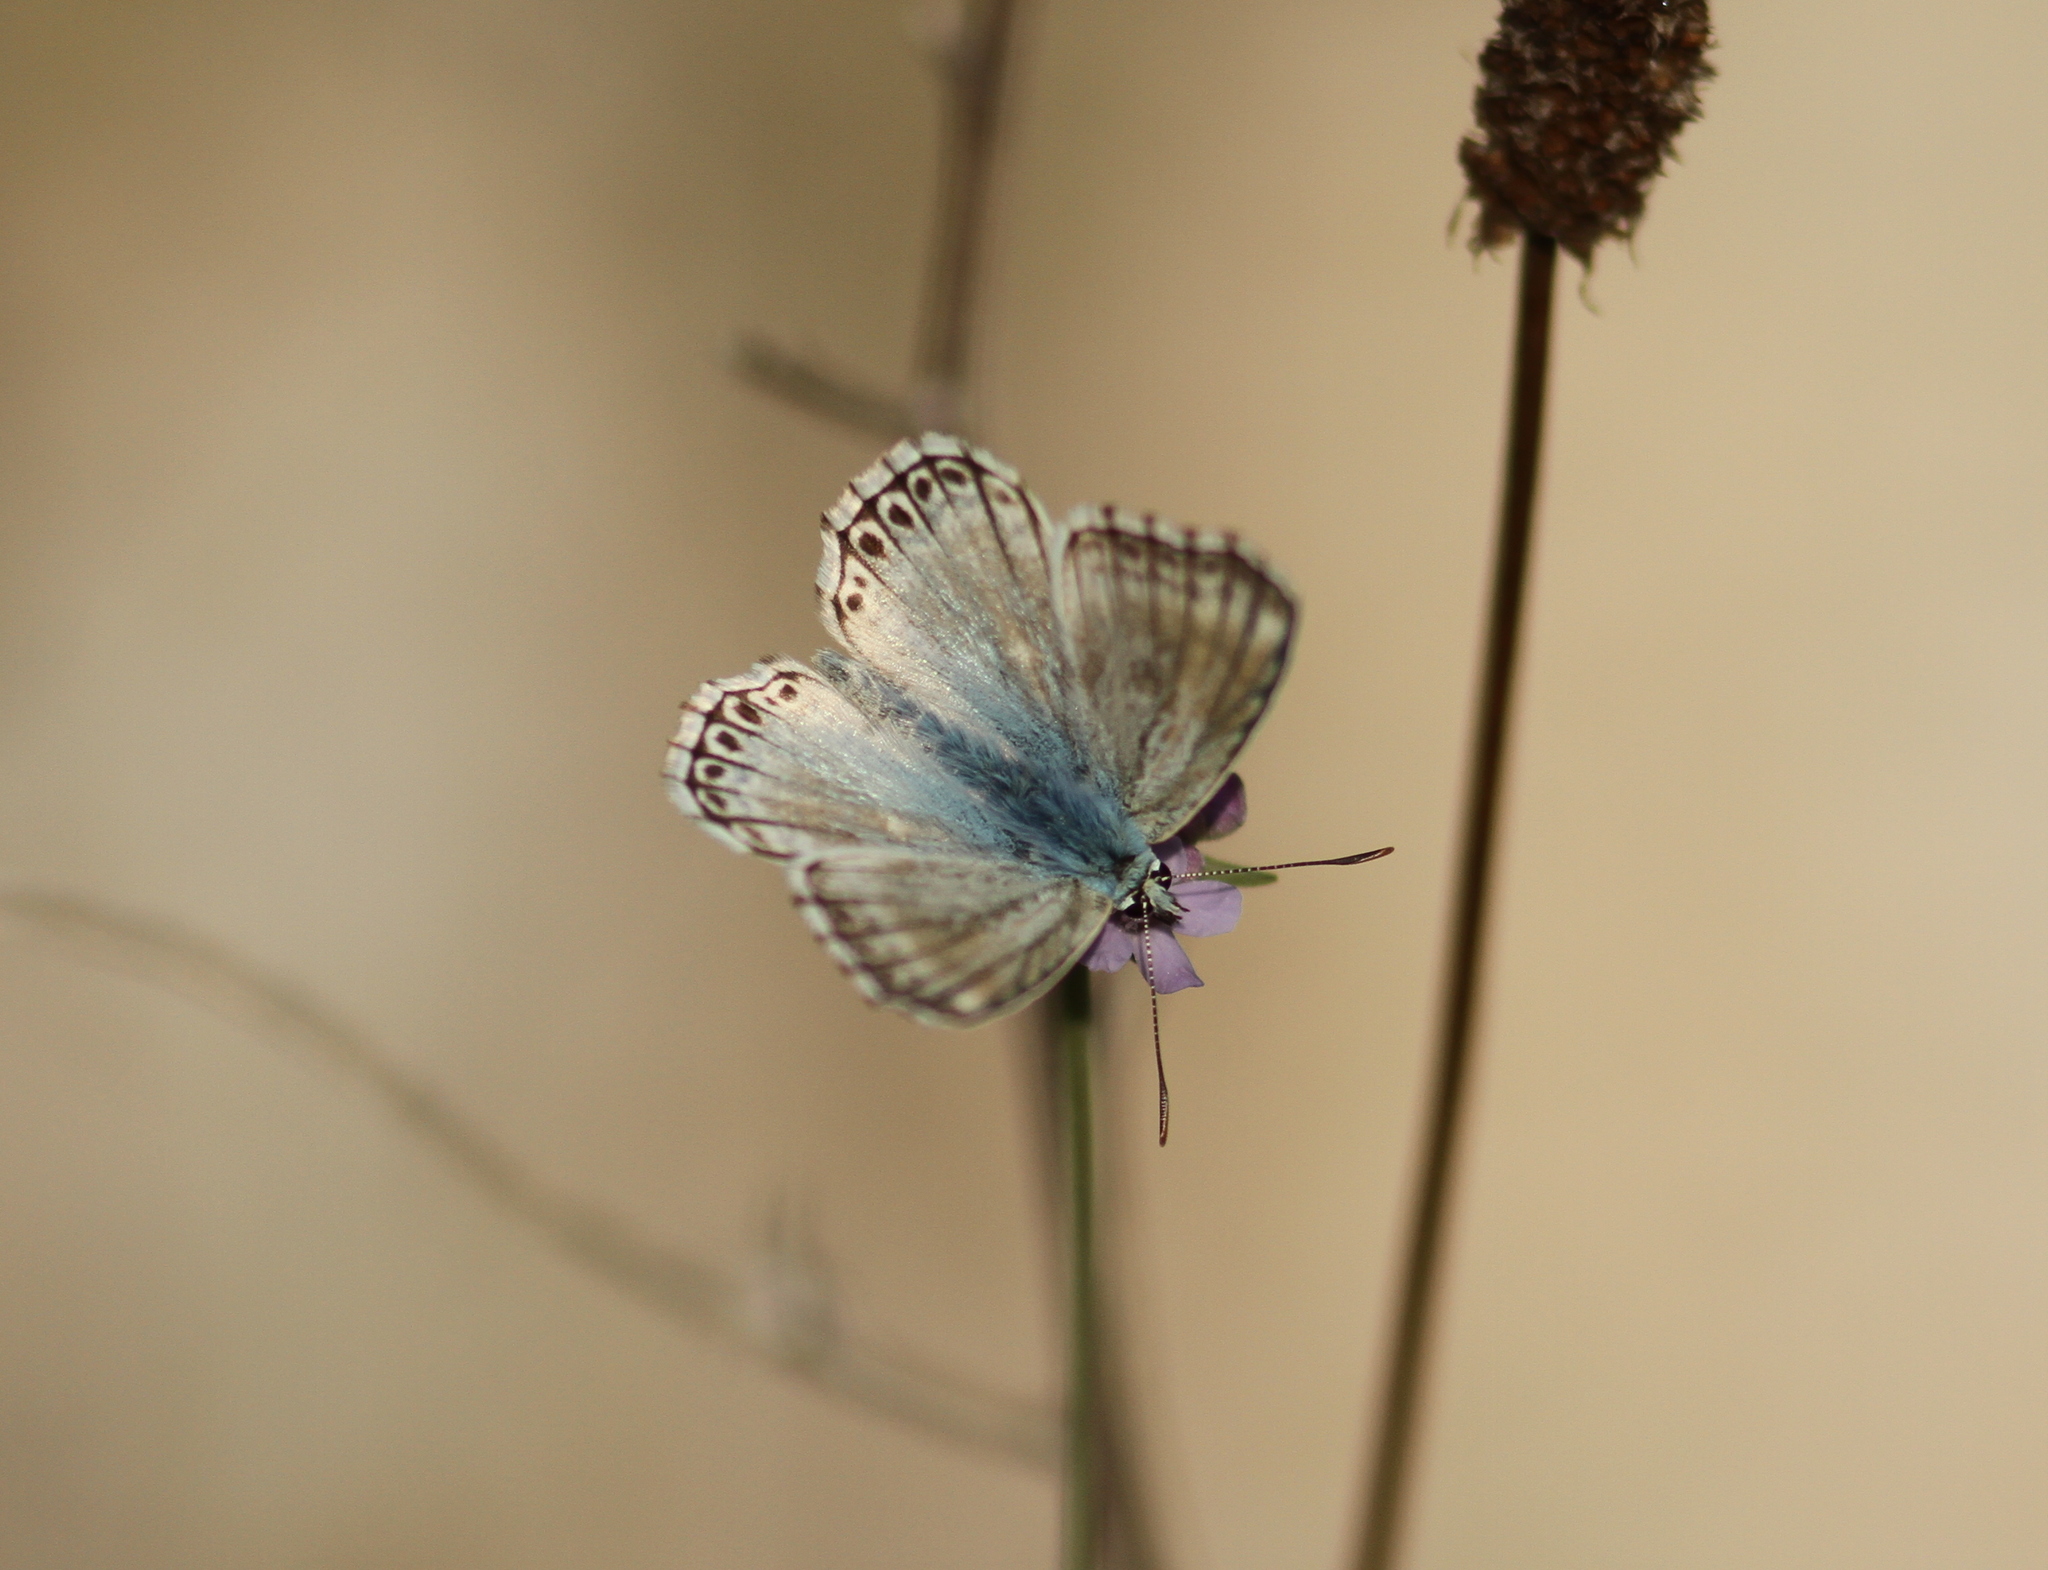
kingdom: Animalia
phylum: Arthropoda
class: Insecta
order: Lepidoptera
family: Lycaenidae
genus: Lysandra
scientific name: Lysandra hispana
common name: Provence chalkhill blue
